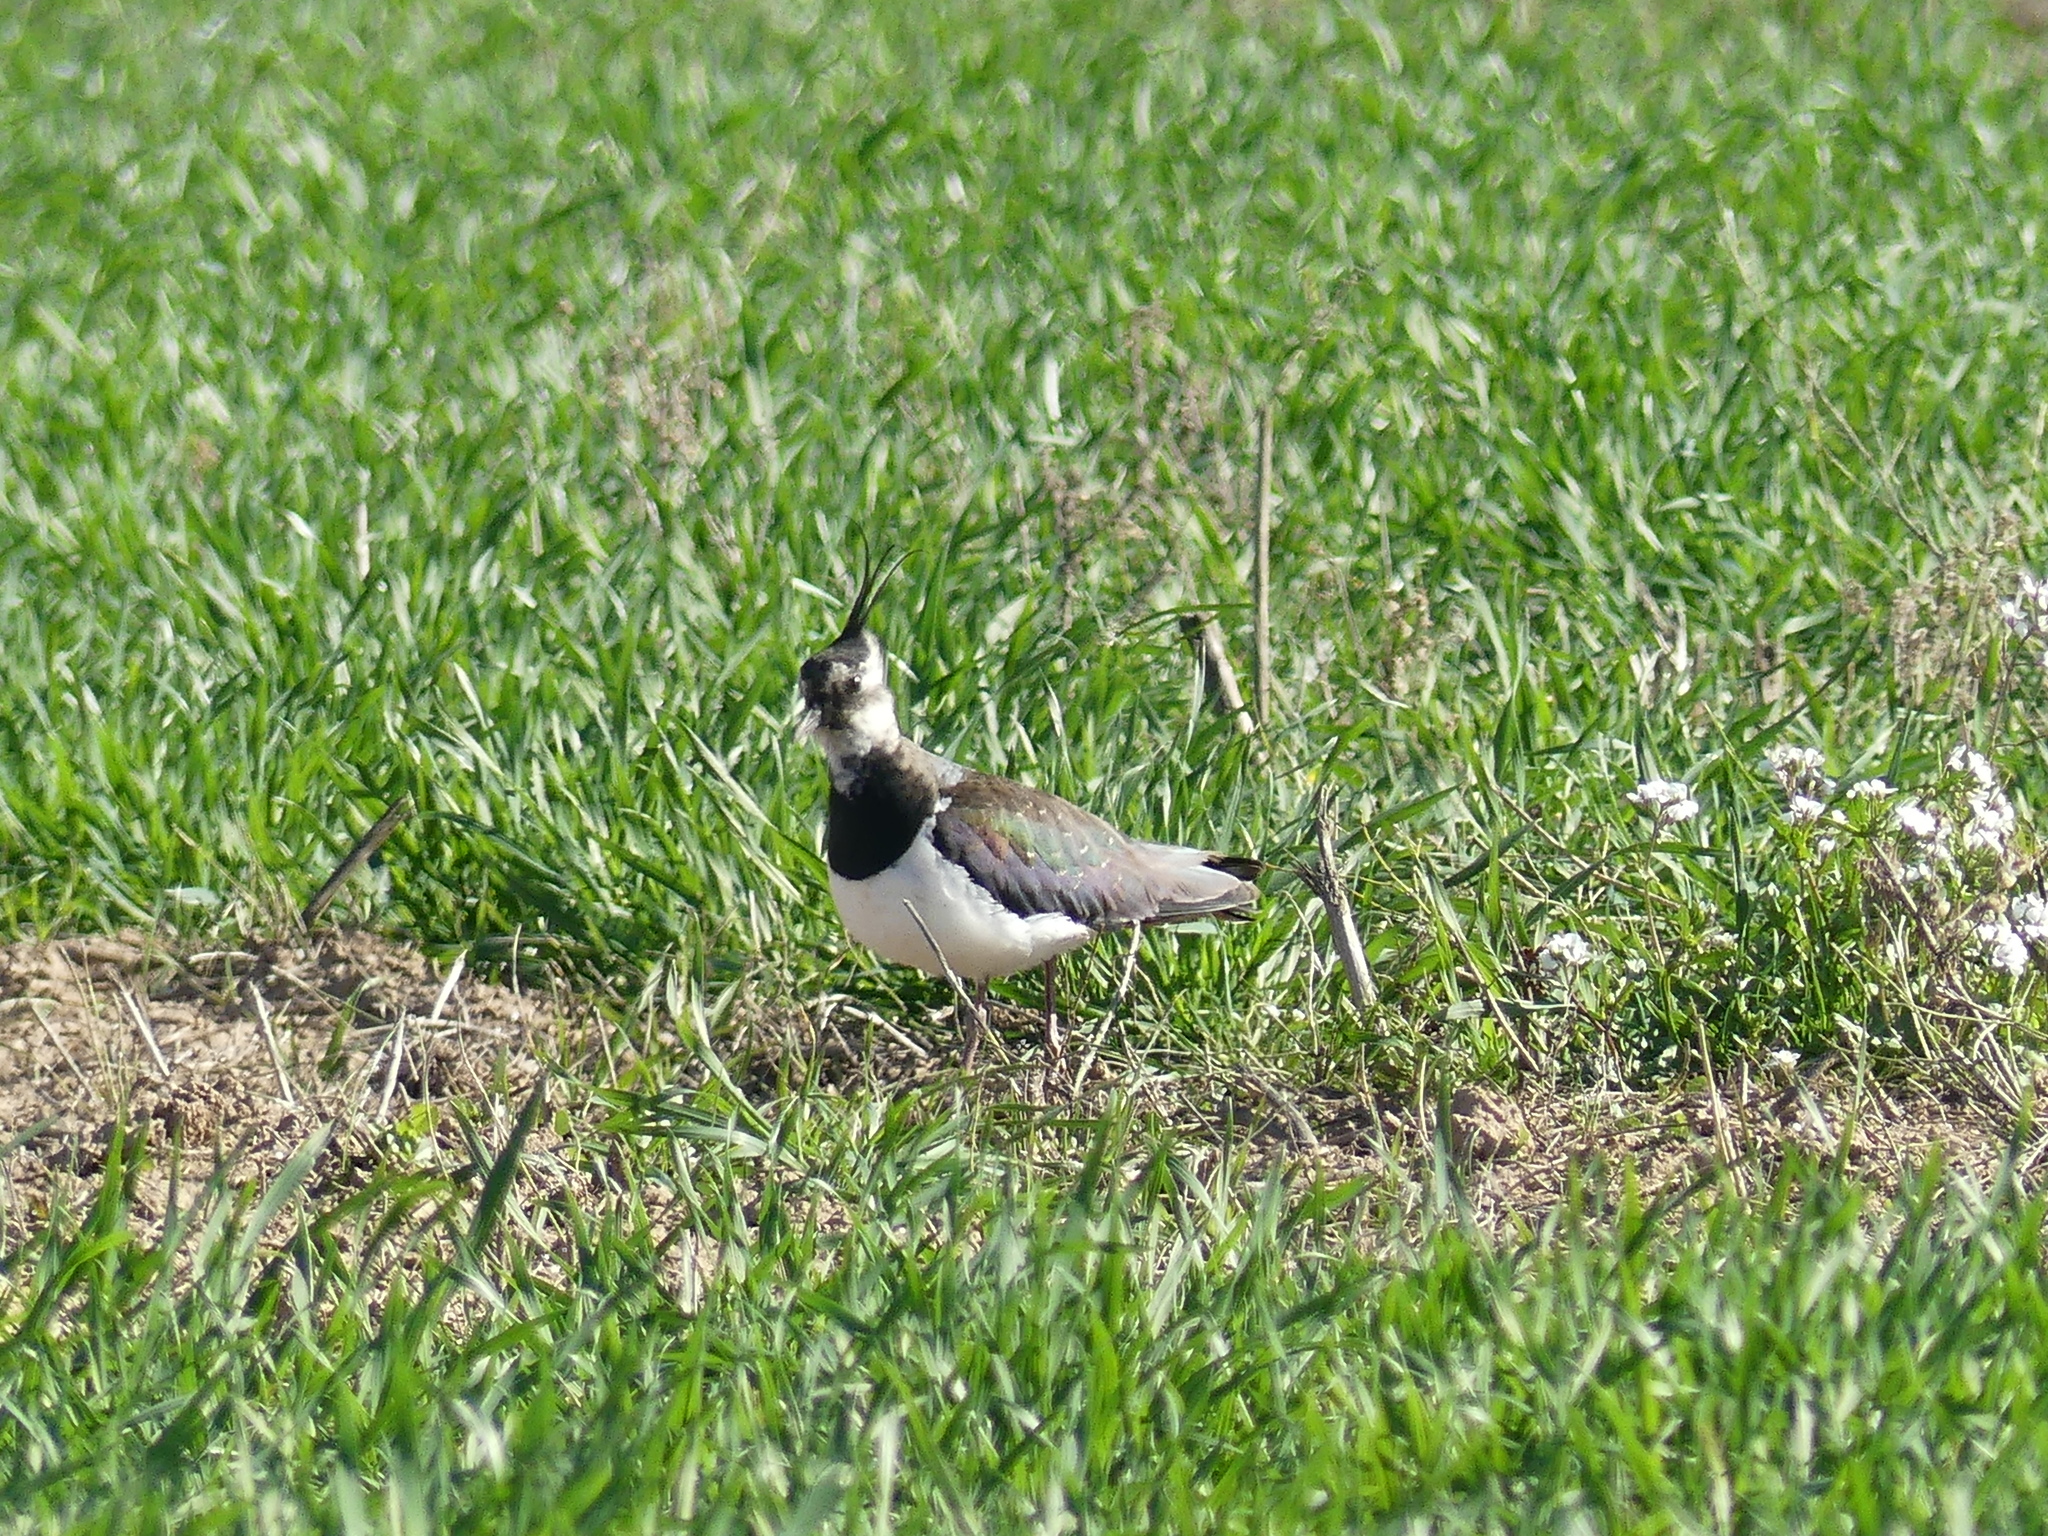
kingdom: Animalia
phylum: Chordata
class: Aves
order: Charadriiformes
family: Charadriidae
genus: Vanellus
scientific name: Vanellus vanellus
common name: Northern lapwing
